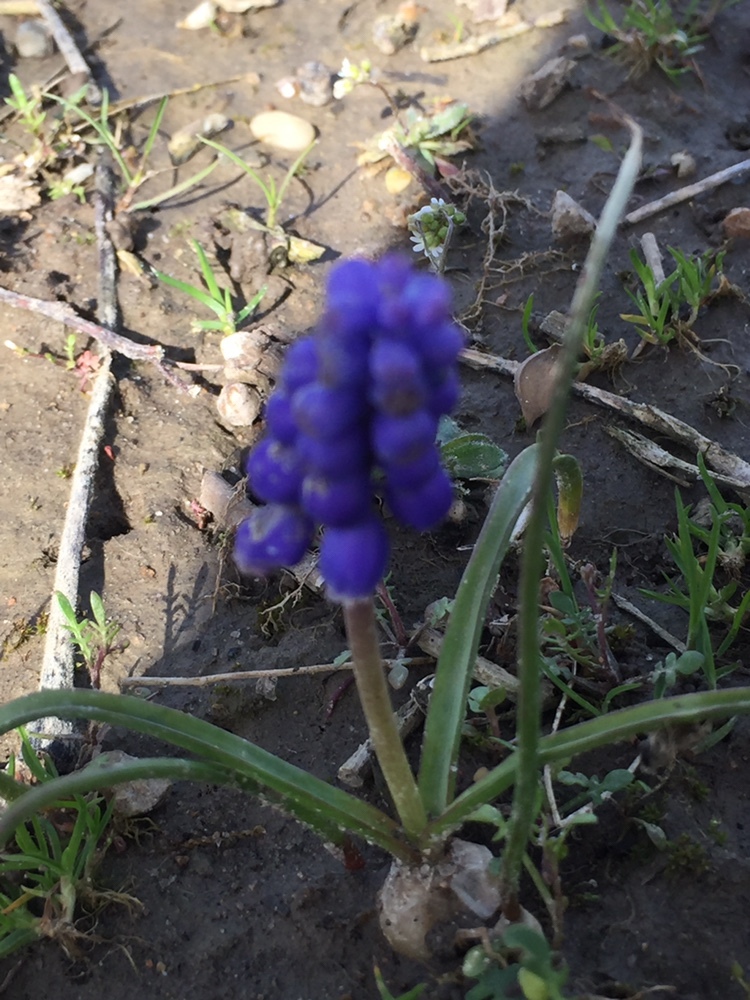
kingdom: Plantae
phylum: Tracheophyta
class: Liliopsida
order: Asparagales
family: Asparagaceae
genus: Muscari
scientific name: Muscari botryoides
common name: Compact grape-hyacinth
